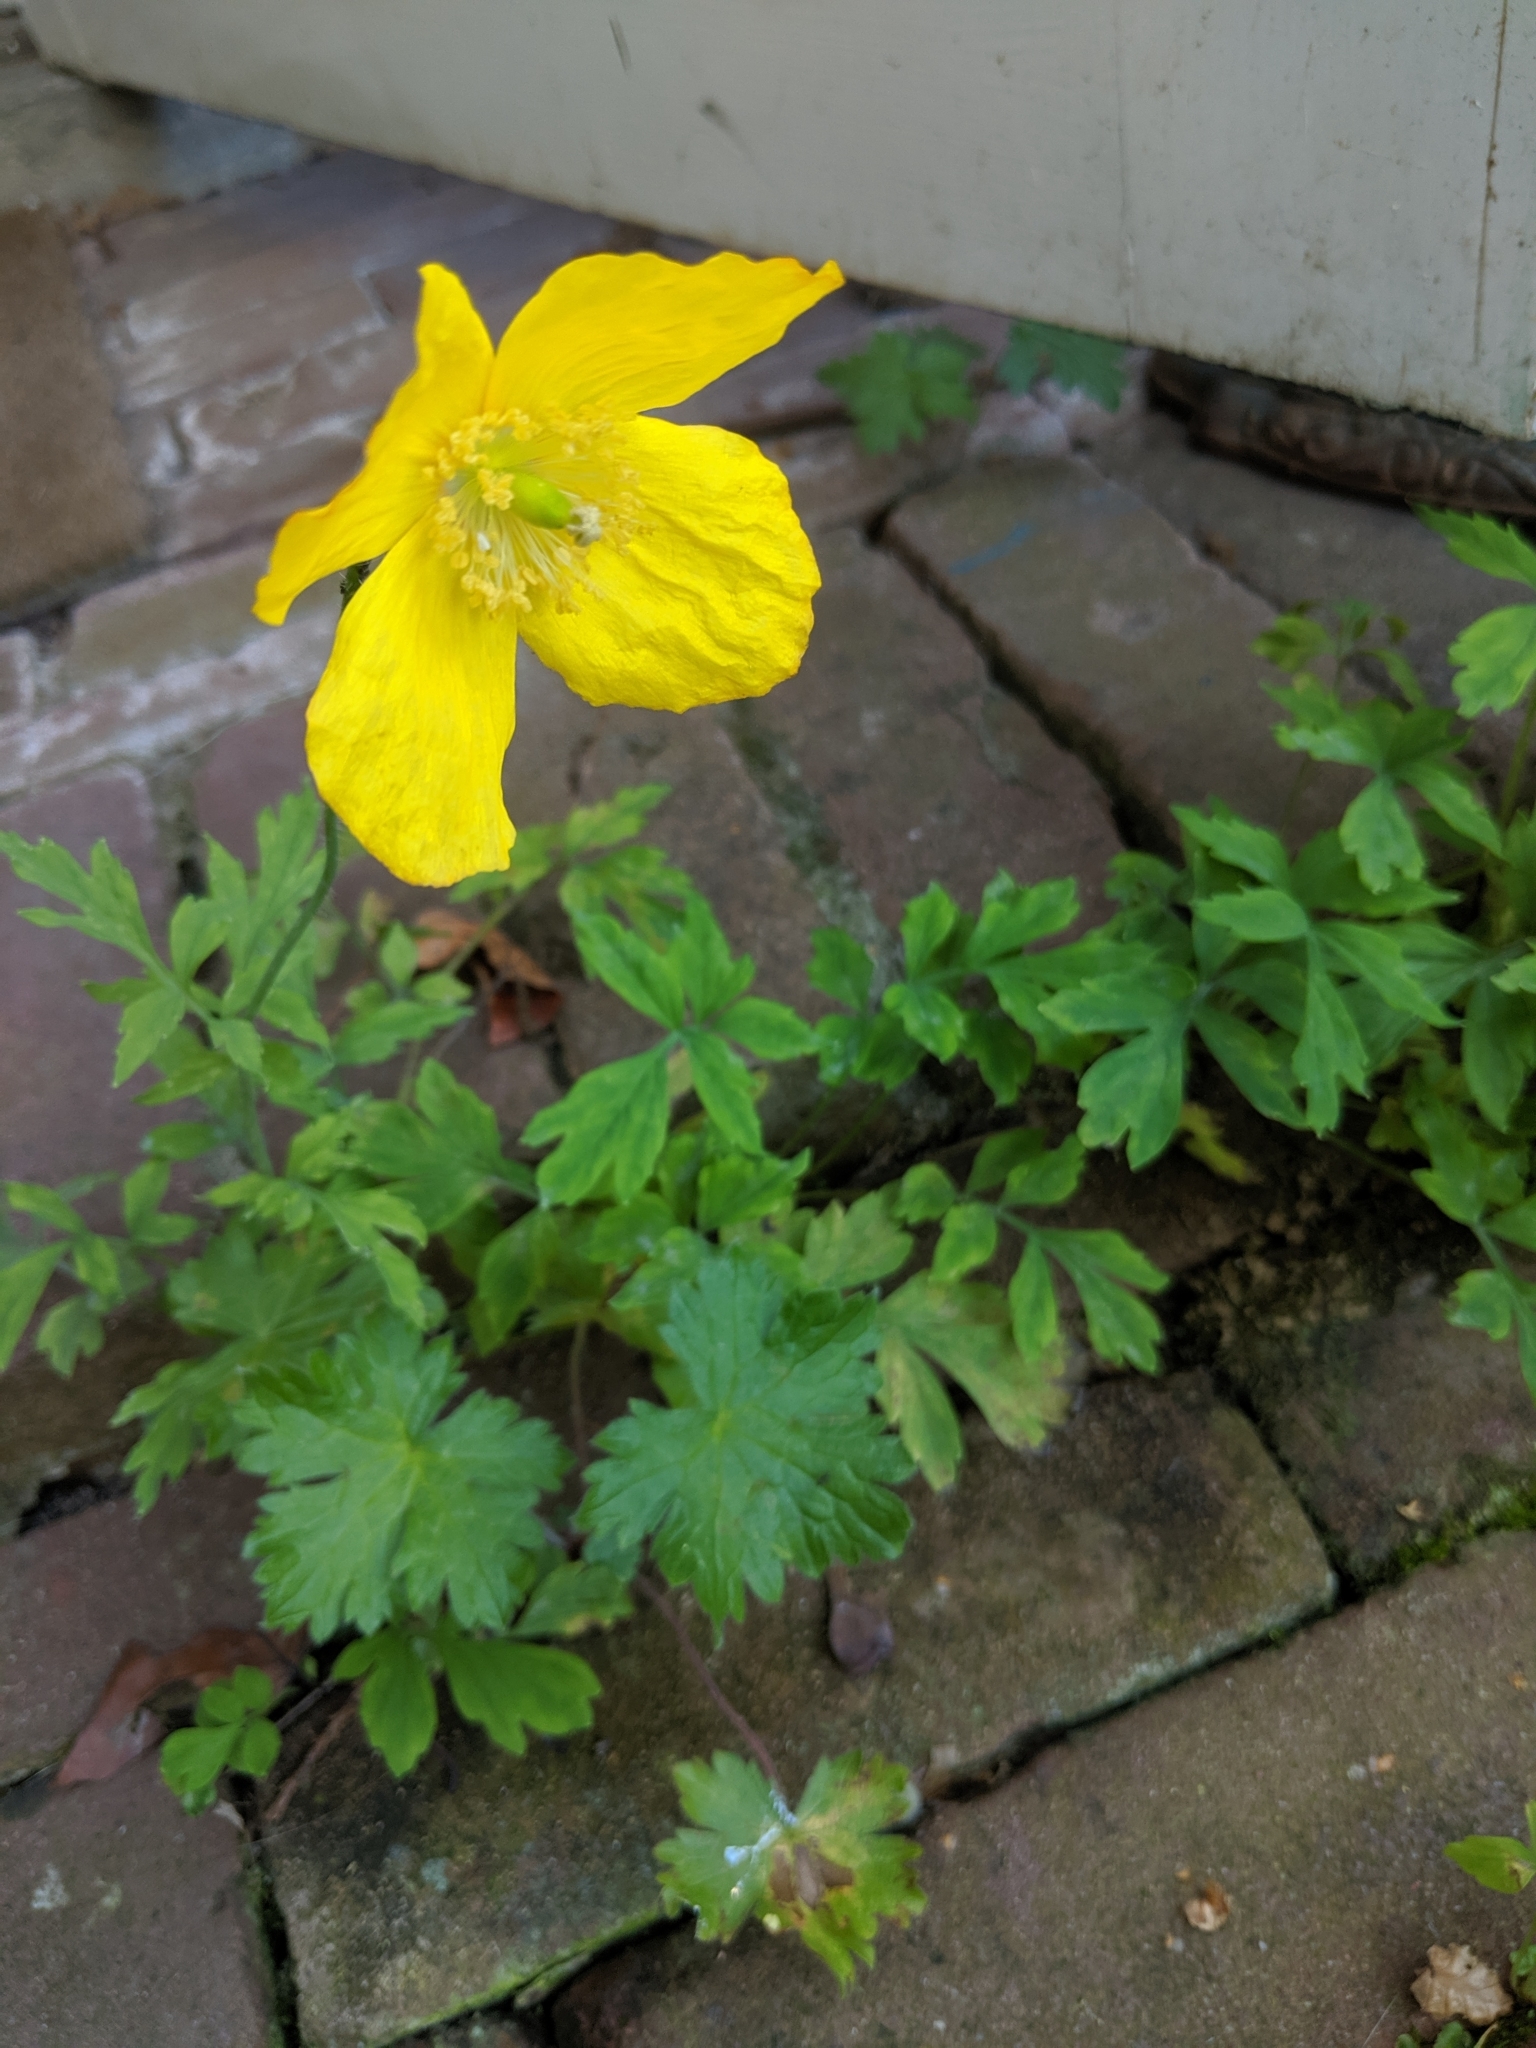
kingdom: Plantae
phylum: Tracheophyta
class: Magnoliopsida
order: Ranunculales
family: Papaveraceae
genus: Papaver
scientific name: Papaver cambricum
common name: Poppy
